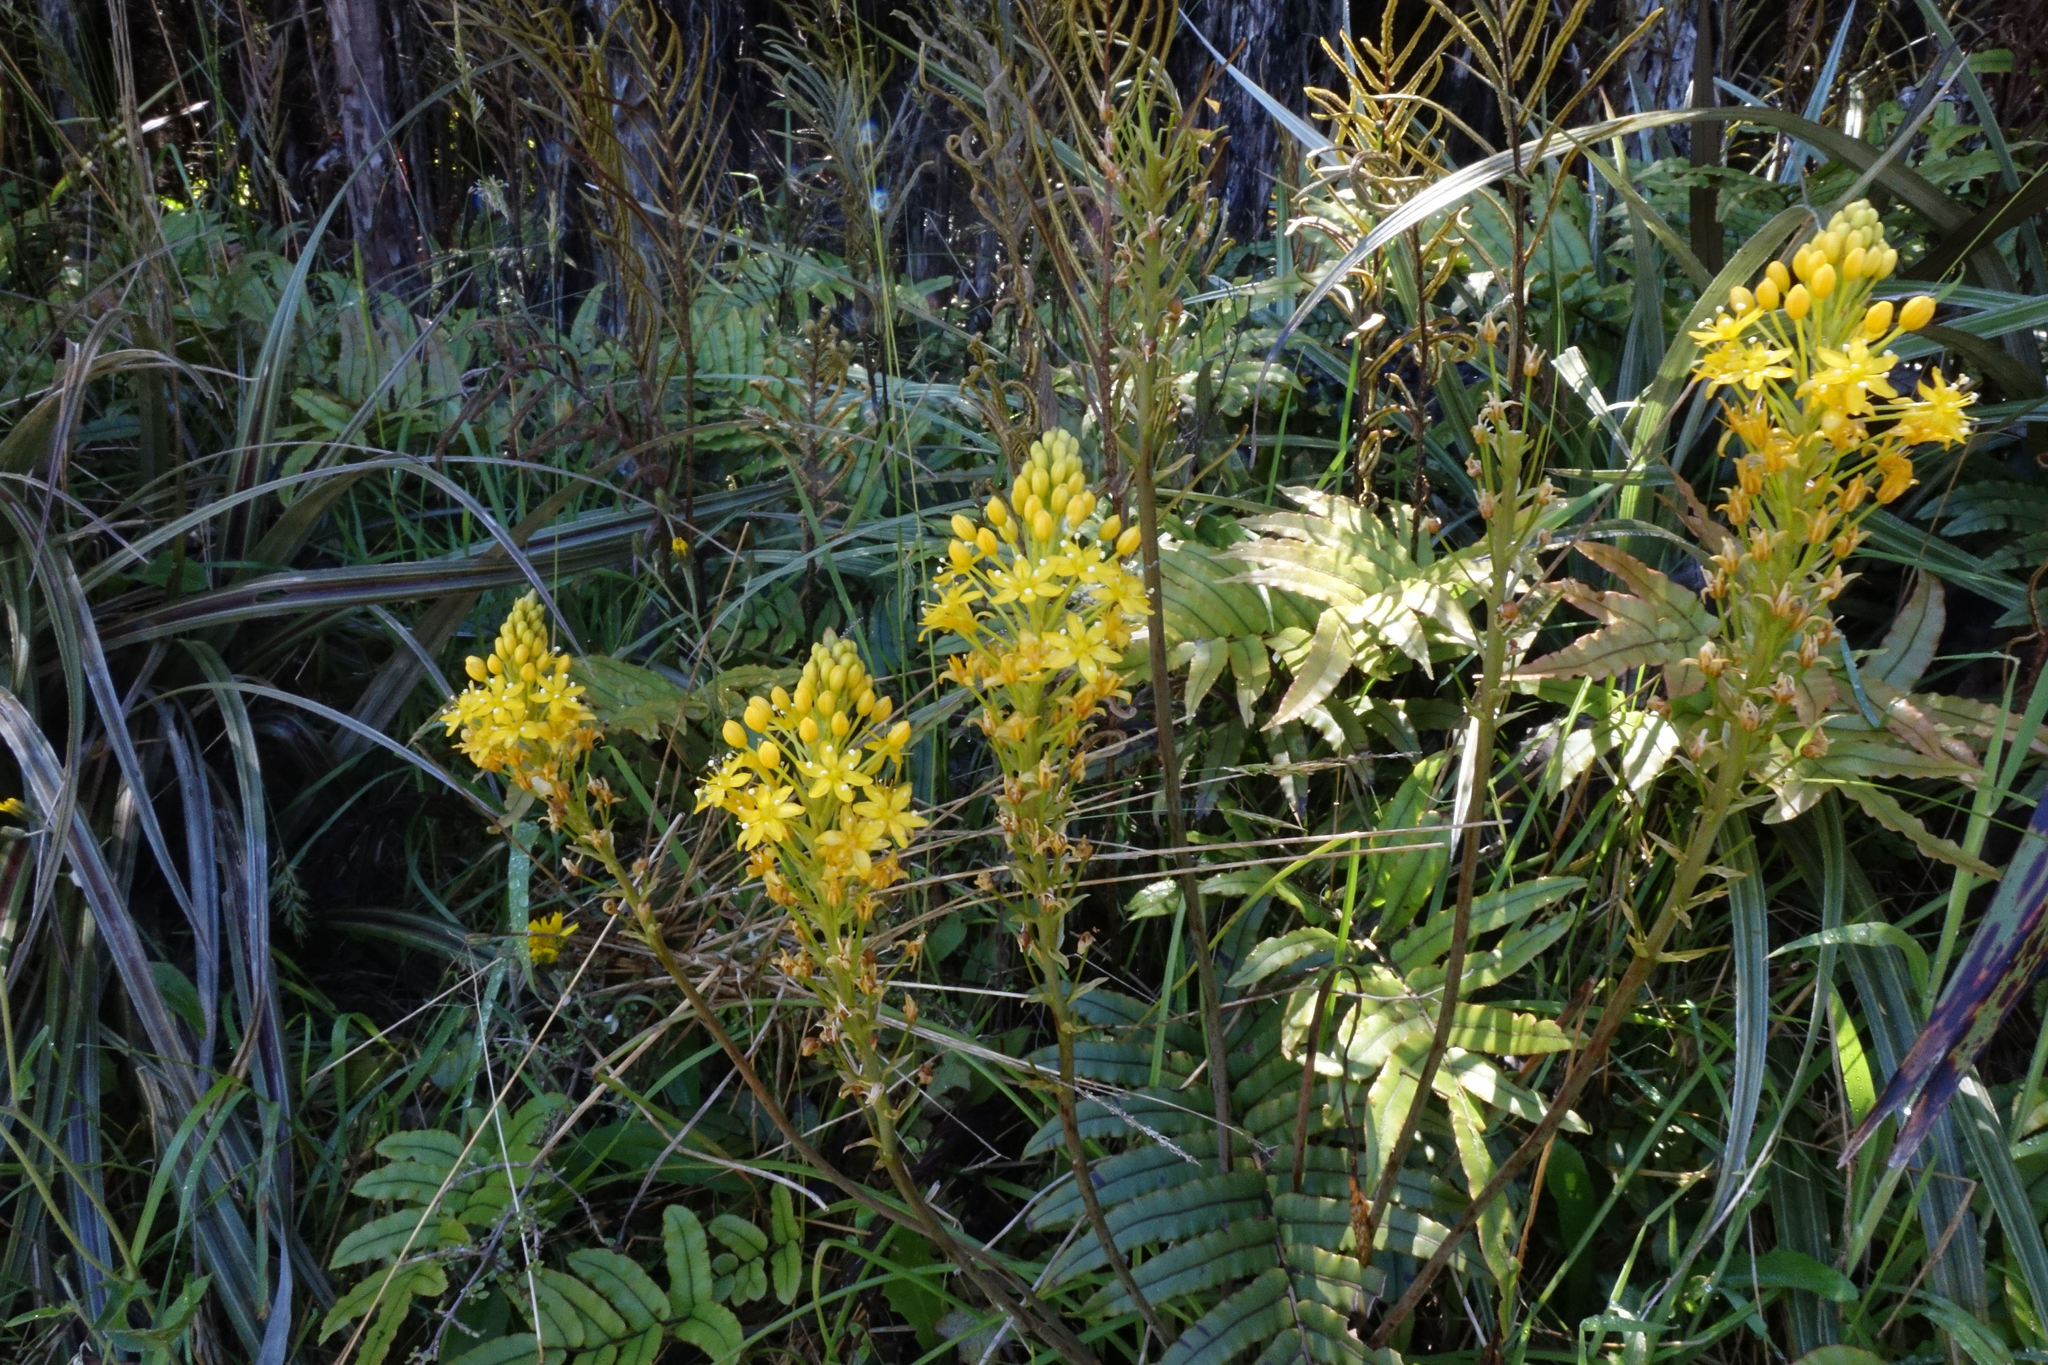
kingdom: Plantae
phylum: Tracheophyta
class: Liliopsida
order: Asparagales
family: Asphodelaceae
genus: Bulbinella
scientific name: Bulbinella angustifolia
